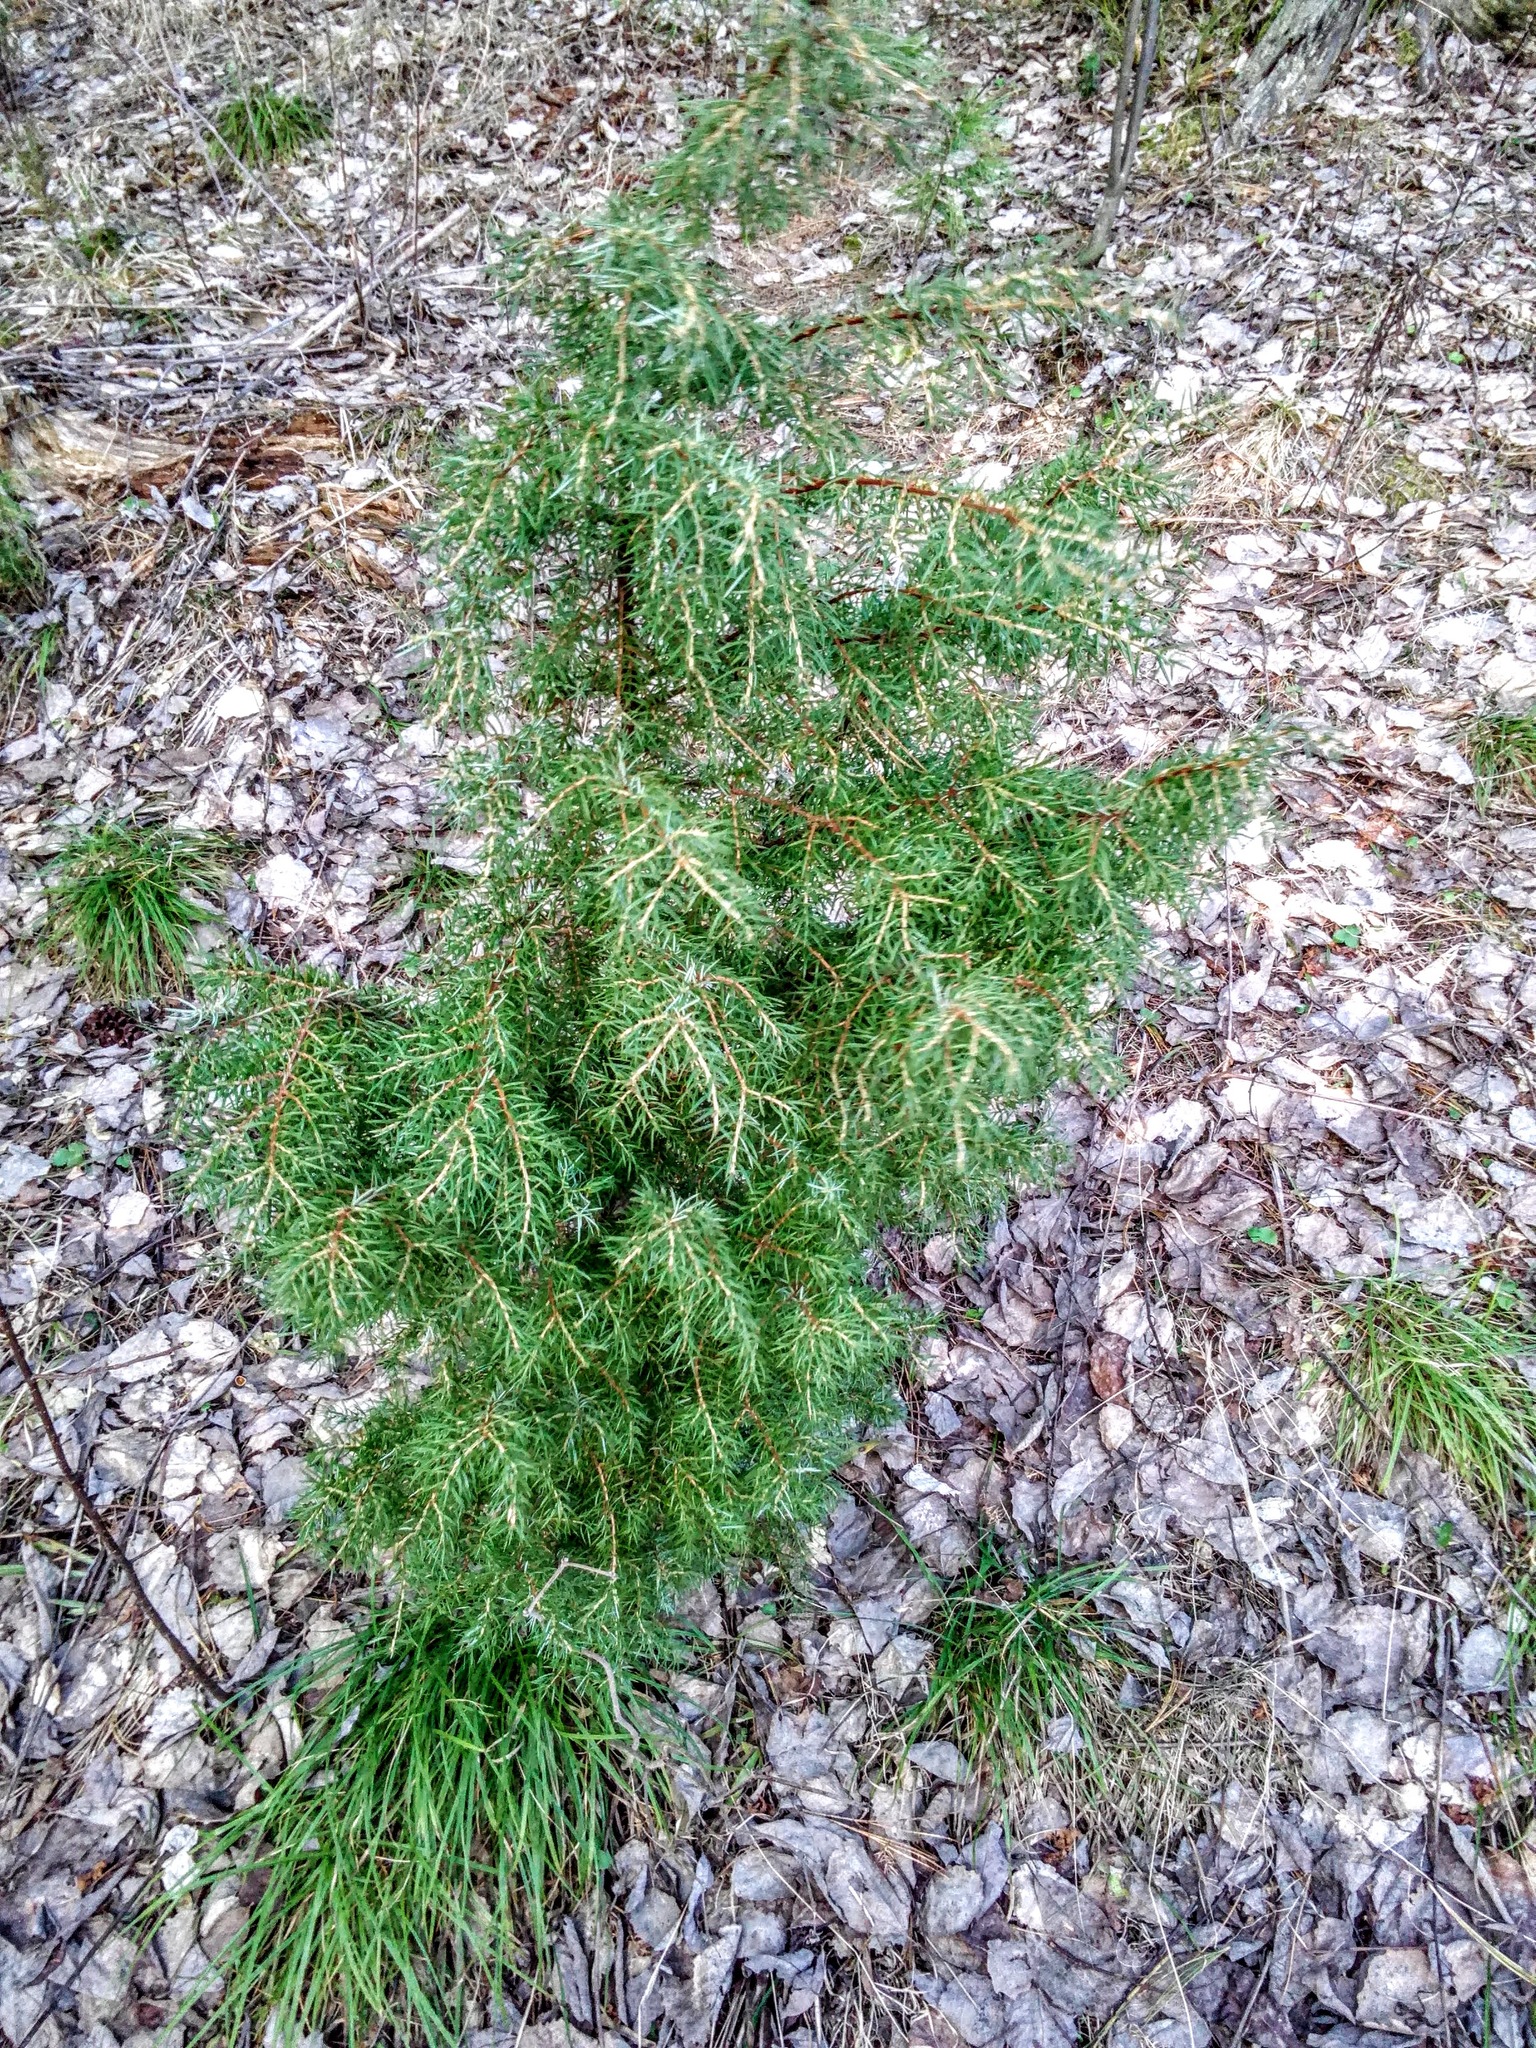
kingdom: Plantae
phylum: Tracheophyta
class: Pinopsida
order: Pinales
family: Cupressaceae
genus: Juniperus
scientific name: Juniperus communis
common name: Common juniper
